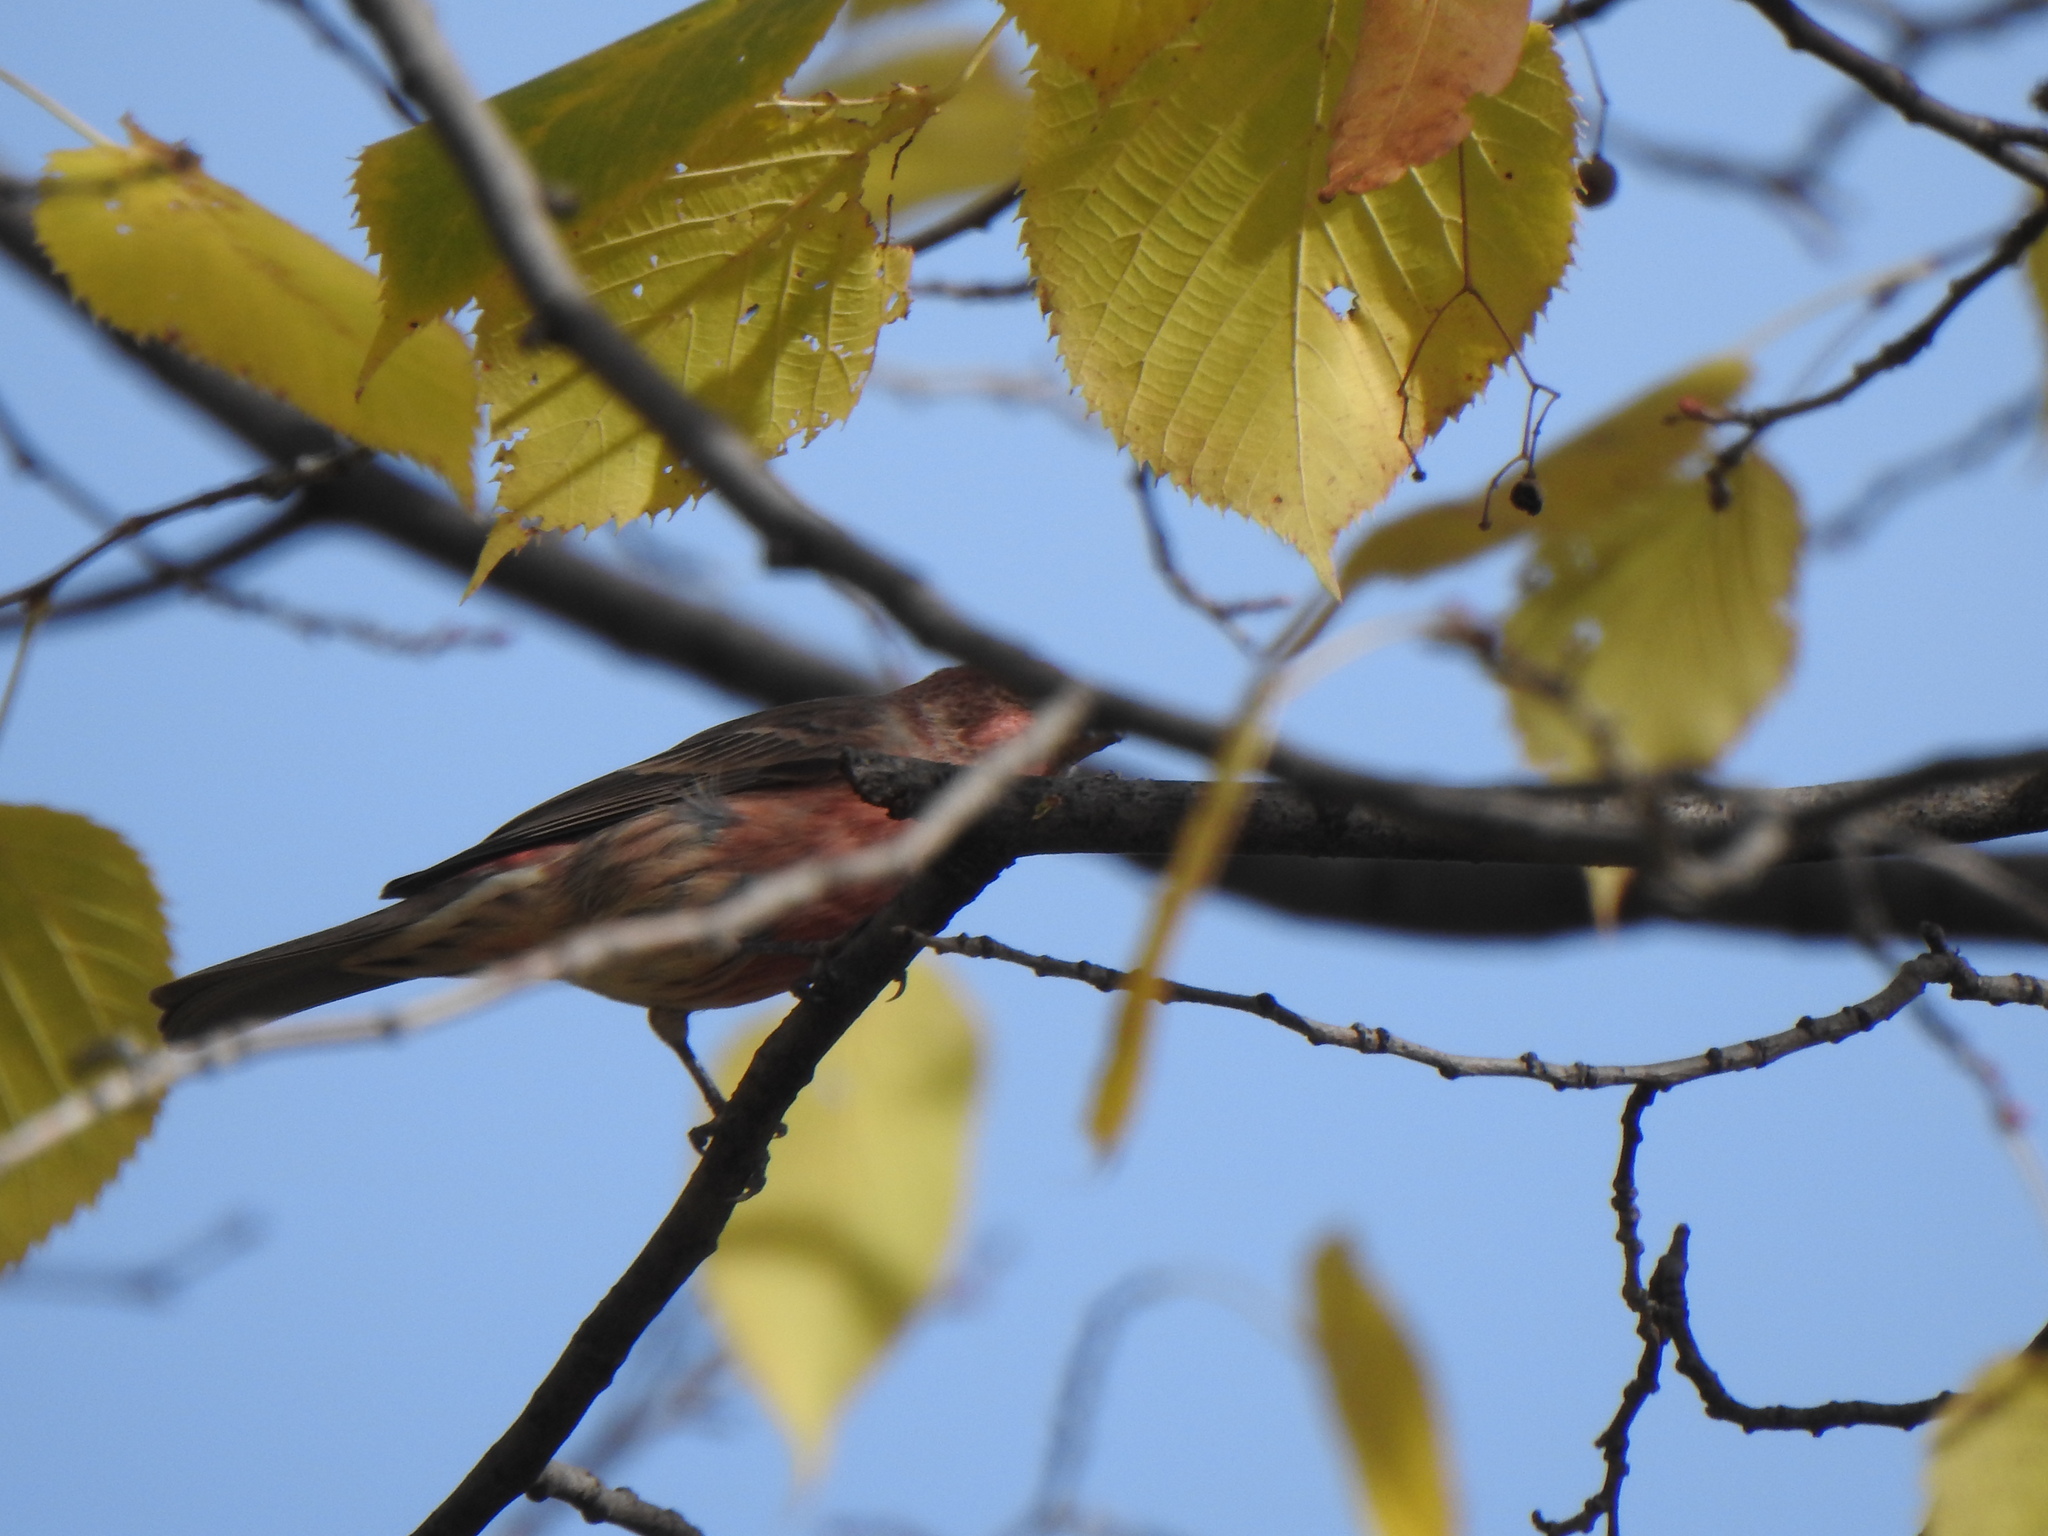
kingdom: Animalia
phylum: Chordata
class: Aves
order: Passeriformes
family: Fringillidae
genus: Haemorhous
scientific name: Haemorhous mexicanus
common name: House finch
